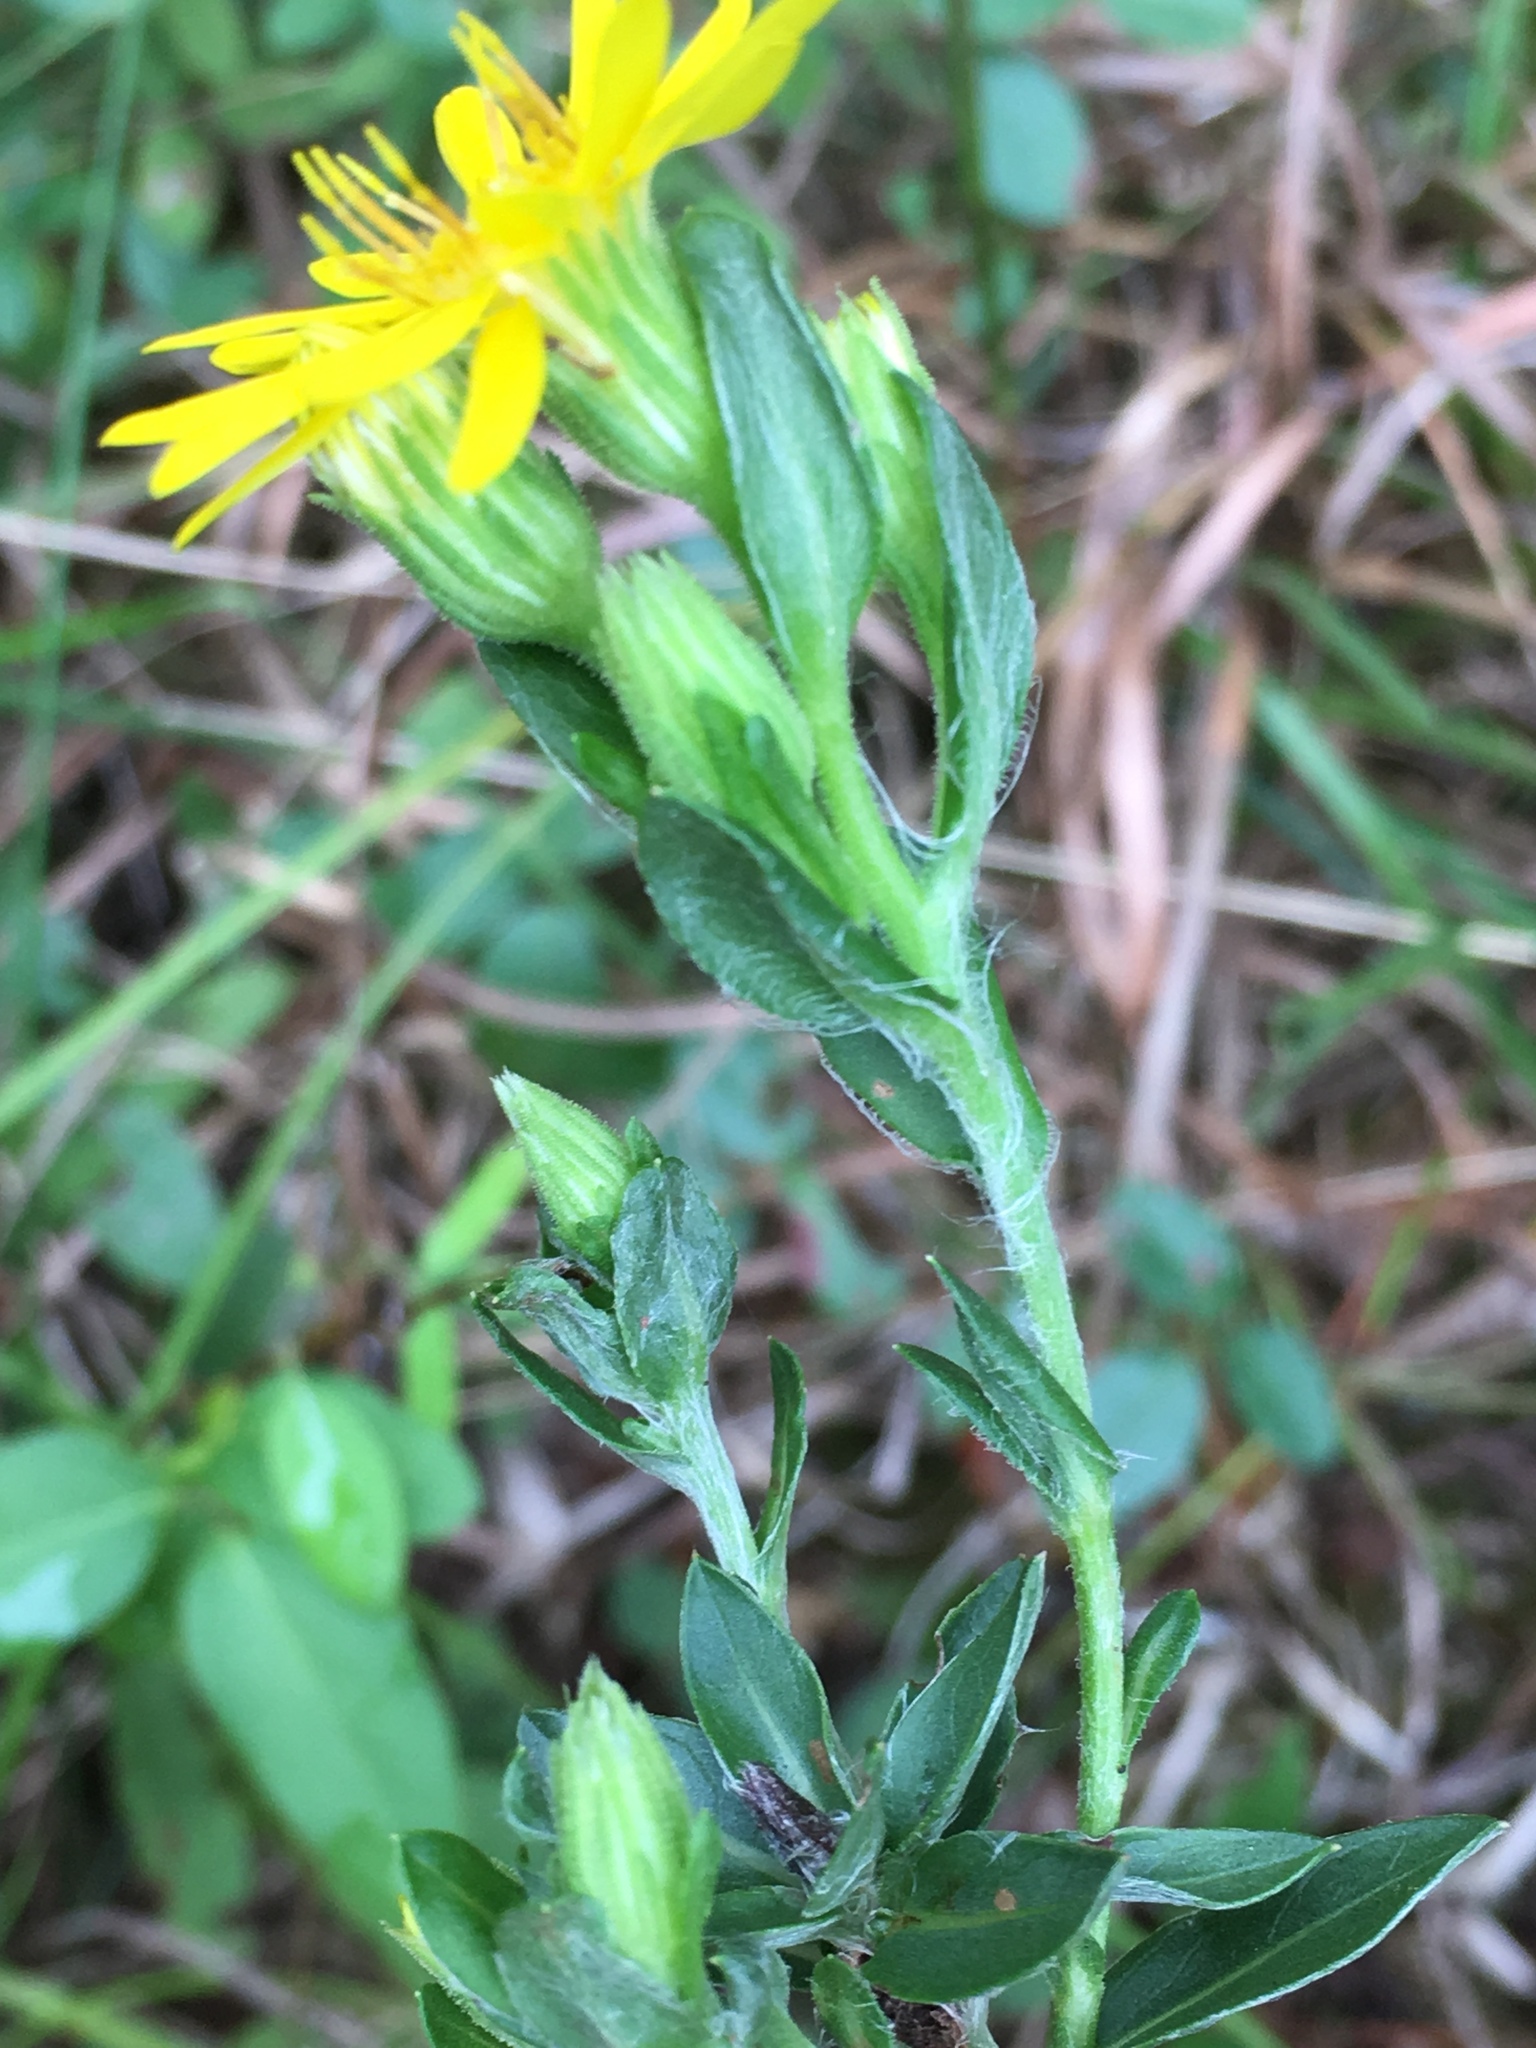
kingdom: Plantae
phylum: Tracheophyta
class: Magnoliopsida
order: Asterales
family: Asteraceae
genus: Chrysopsis
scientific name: Chrysopsis mariana
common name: Maryland golden-aster
